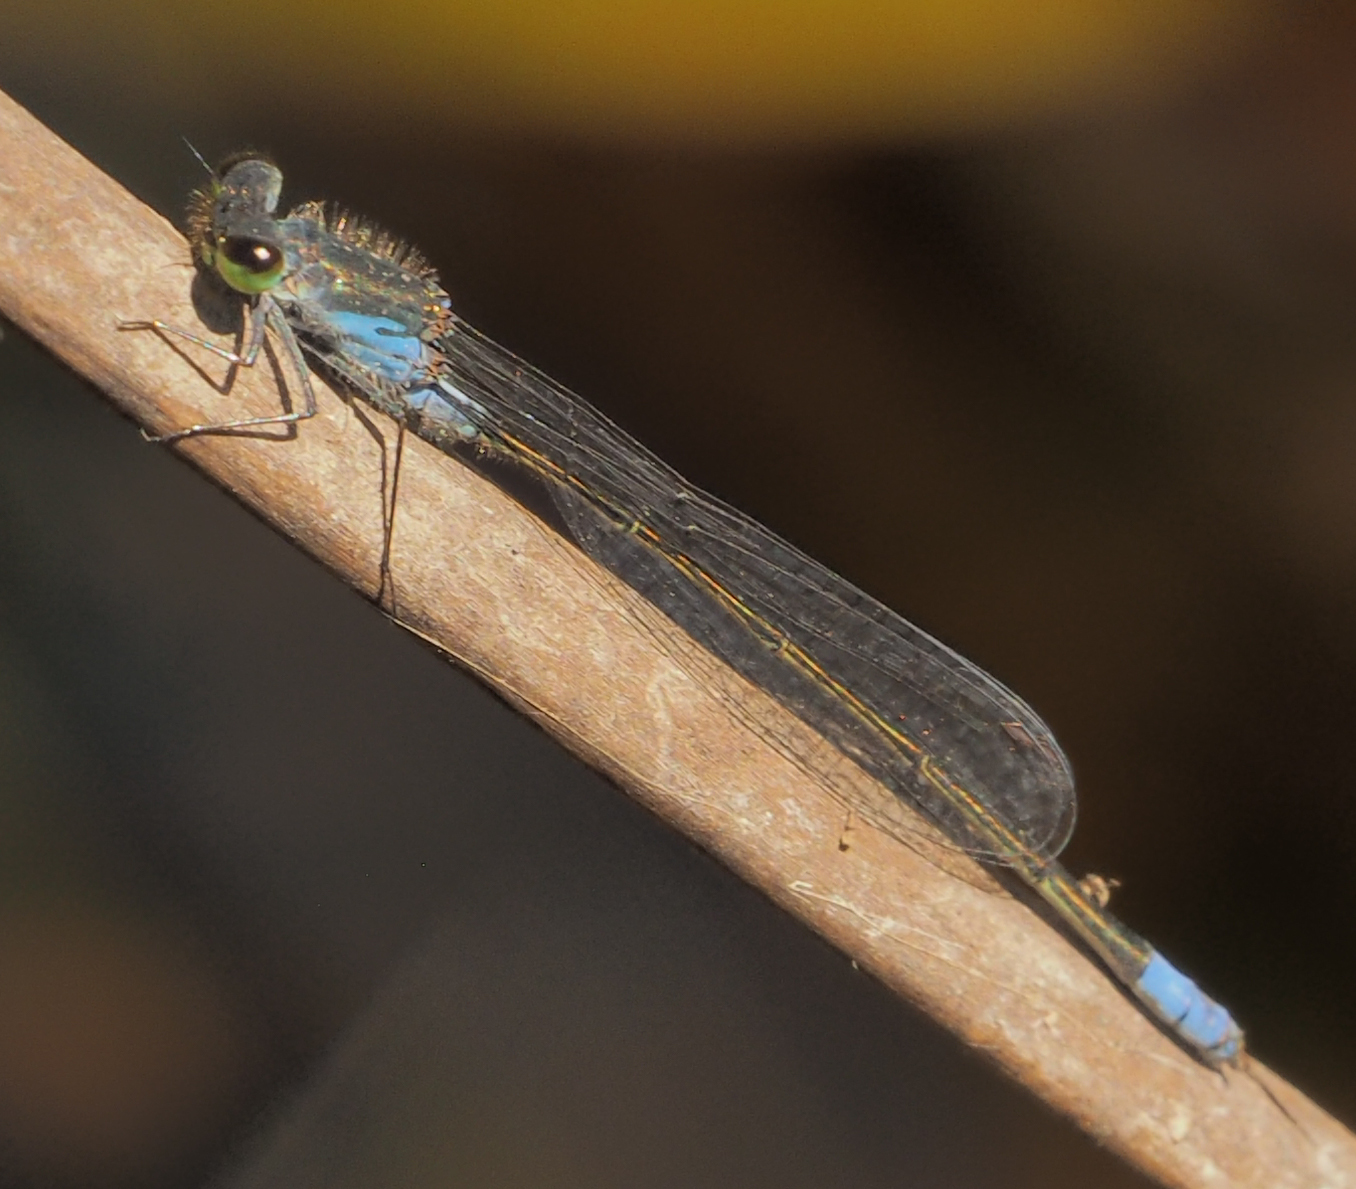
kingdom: Animalia
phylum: Arthropoda
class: Insecta
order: Odonata
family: Coenagrionidae
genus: Pseudagrion
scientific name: Pseudagrion deningi
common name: Dening's sprite
